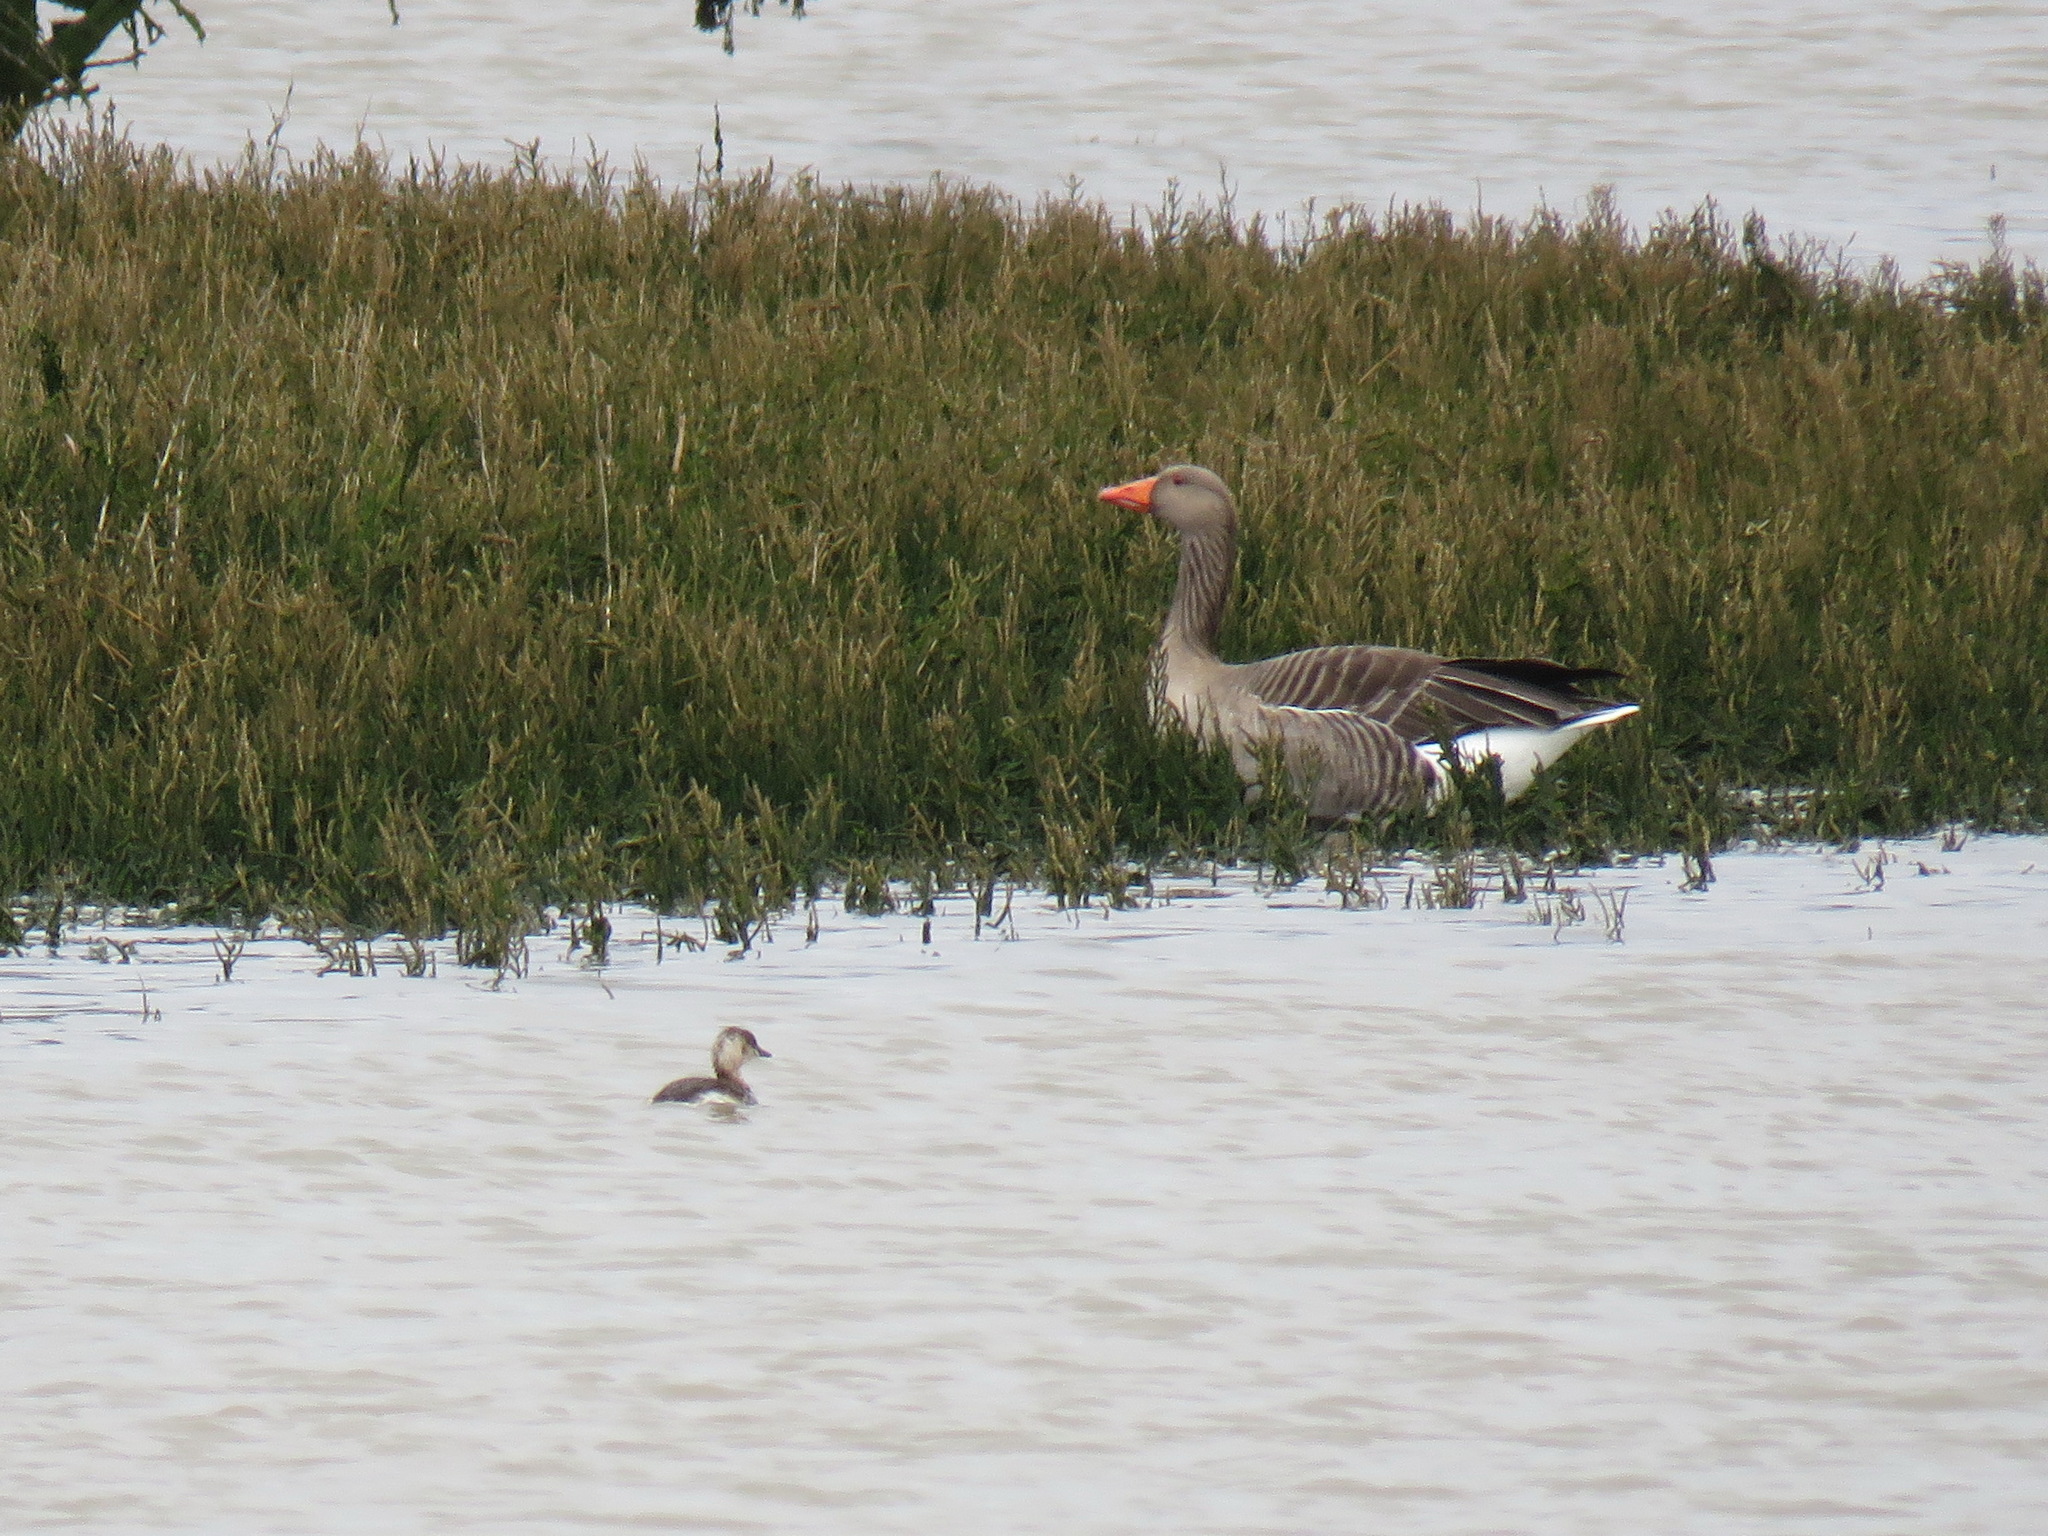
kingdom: Animalia
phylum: Chordata
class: Aves
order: Podicipediformes
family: Podicipedidae
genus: Tachybaptus
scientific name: Tachybaptus ruficollis
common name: Little grebe
